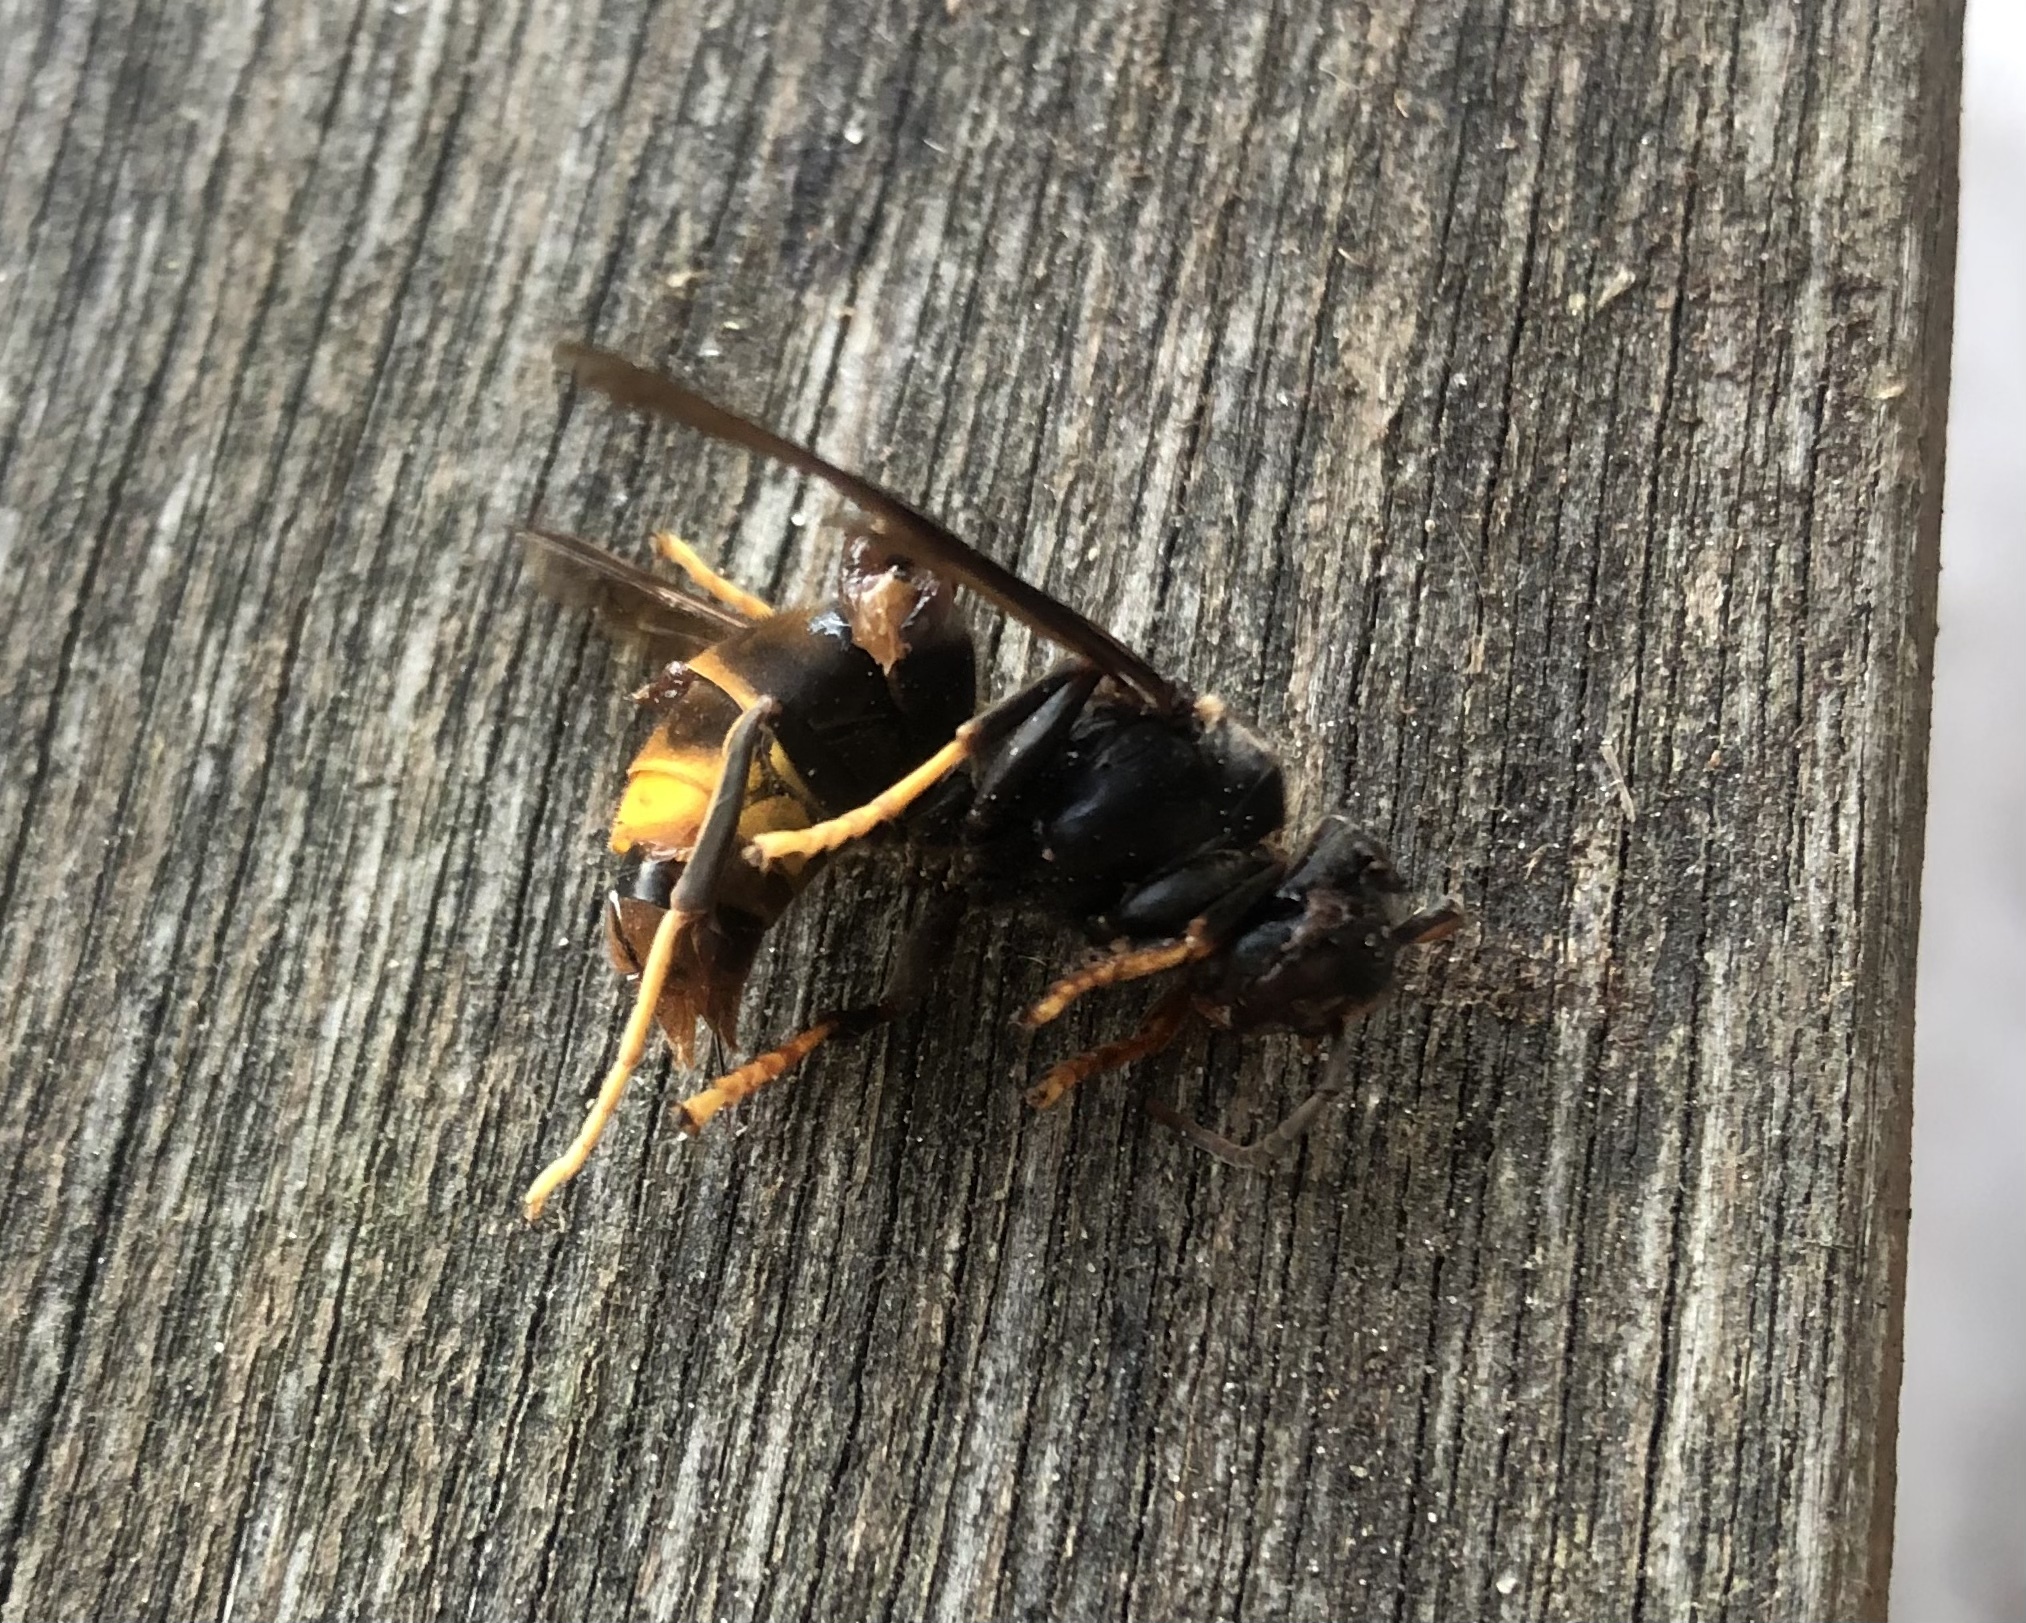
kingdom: Animalia
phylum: Arthropoda
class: Insecta
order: Hymenoptera
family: Vespidae
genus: Vespa
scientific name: Vespa velutina
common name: Asian hornet
